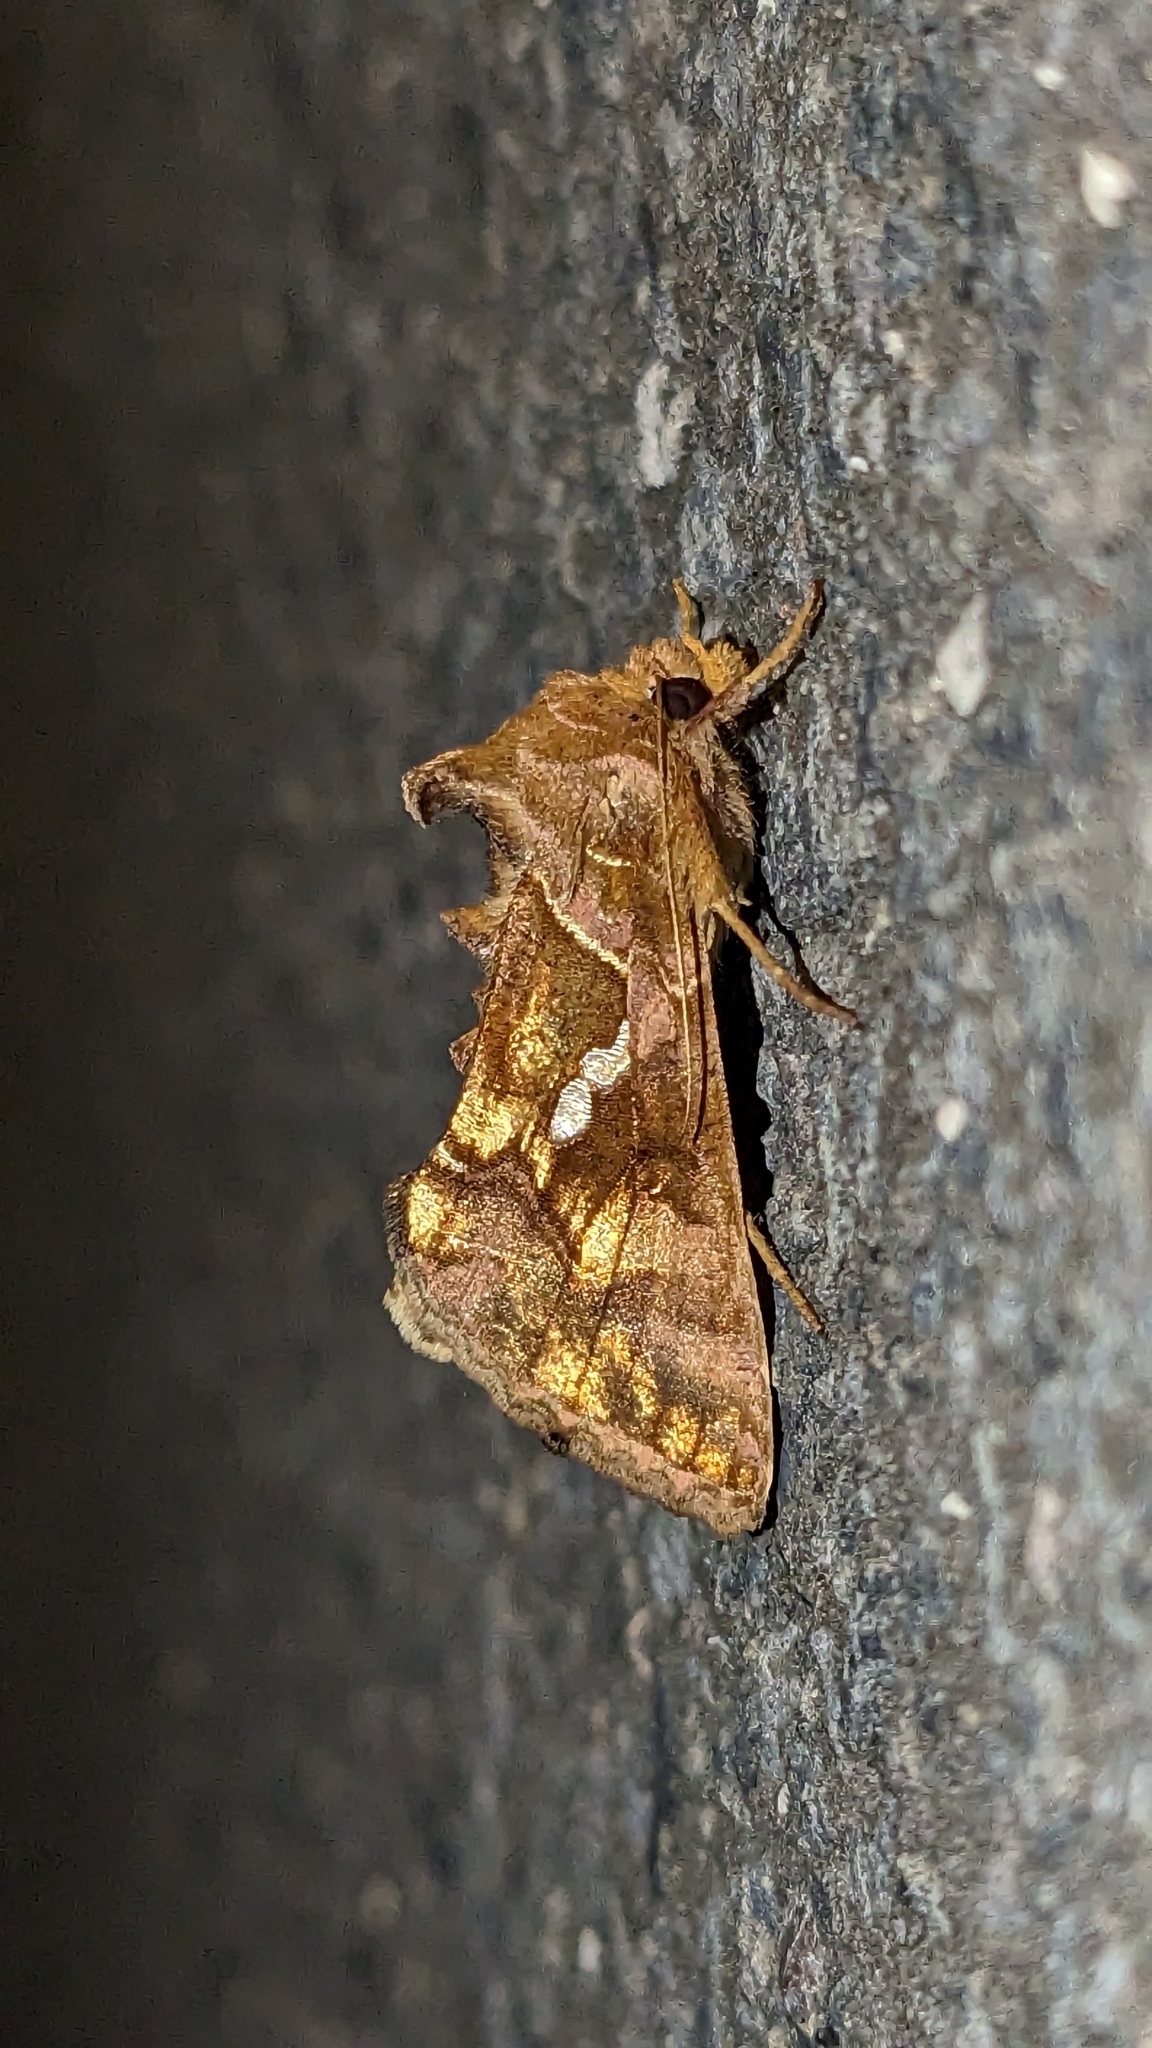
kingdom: Animalia
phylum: Arthropoda
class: Insecta
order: Lepidoptera
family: Noctuidae
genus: Chrysodeixis
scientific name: Chrysodeixis chalcites
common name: Golden twin-spot
